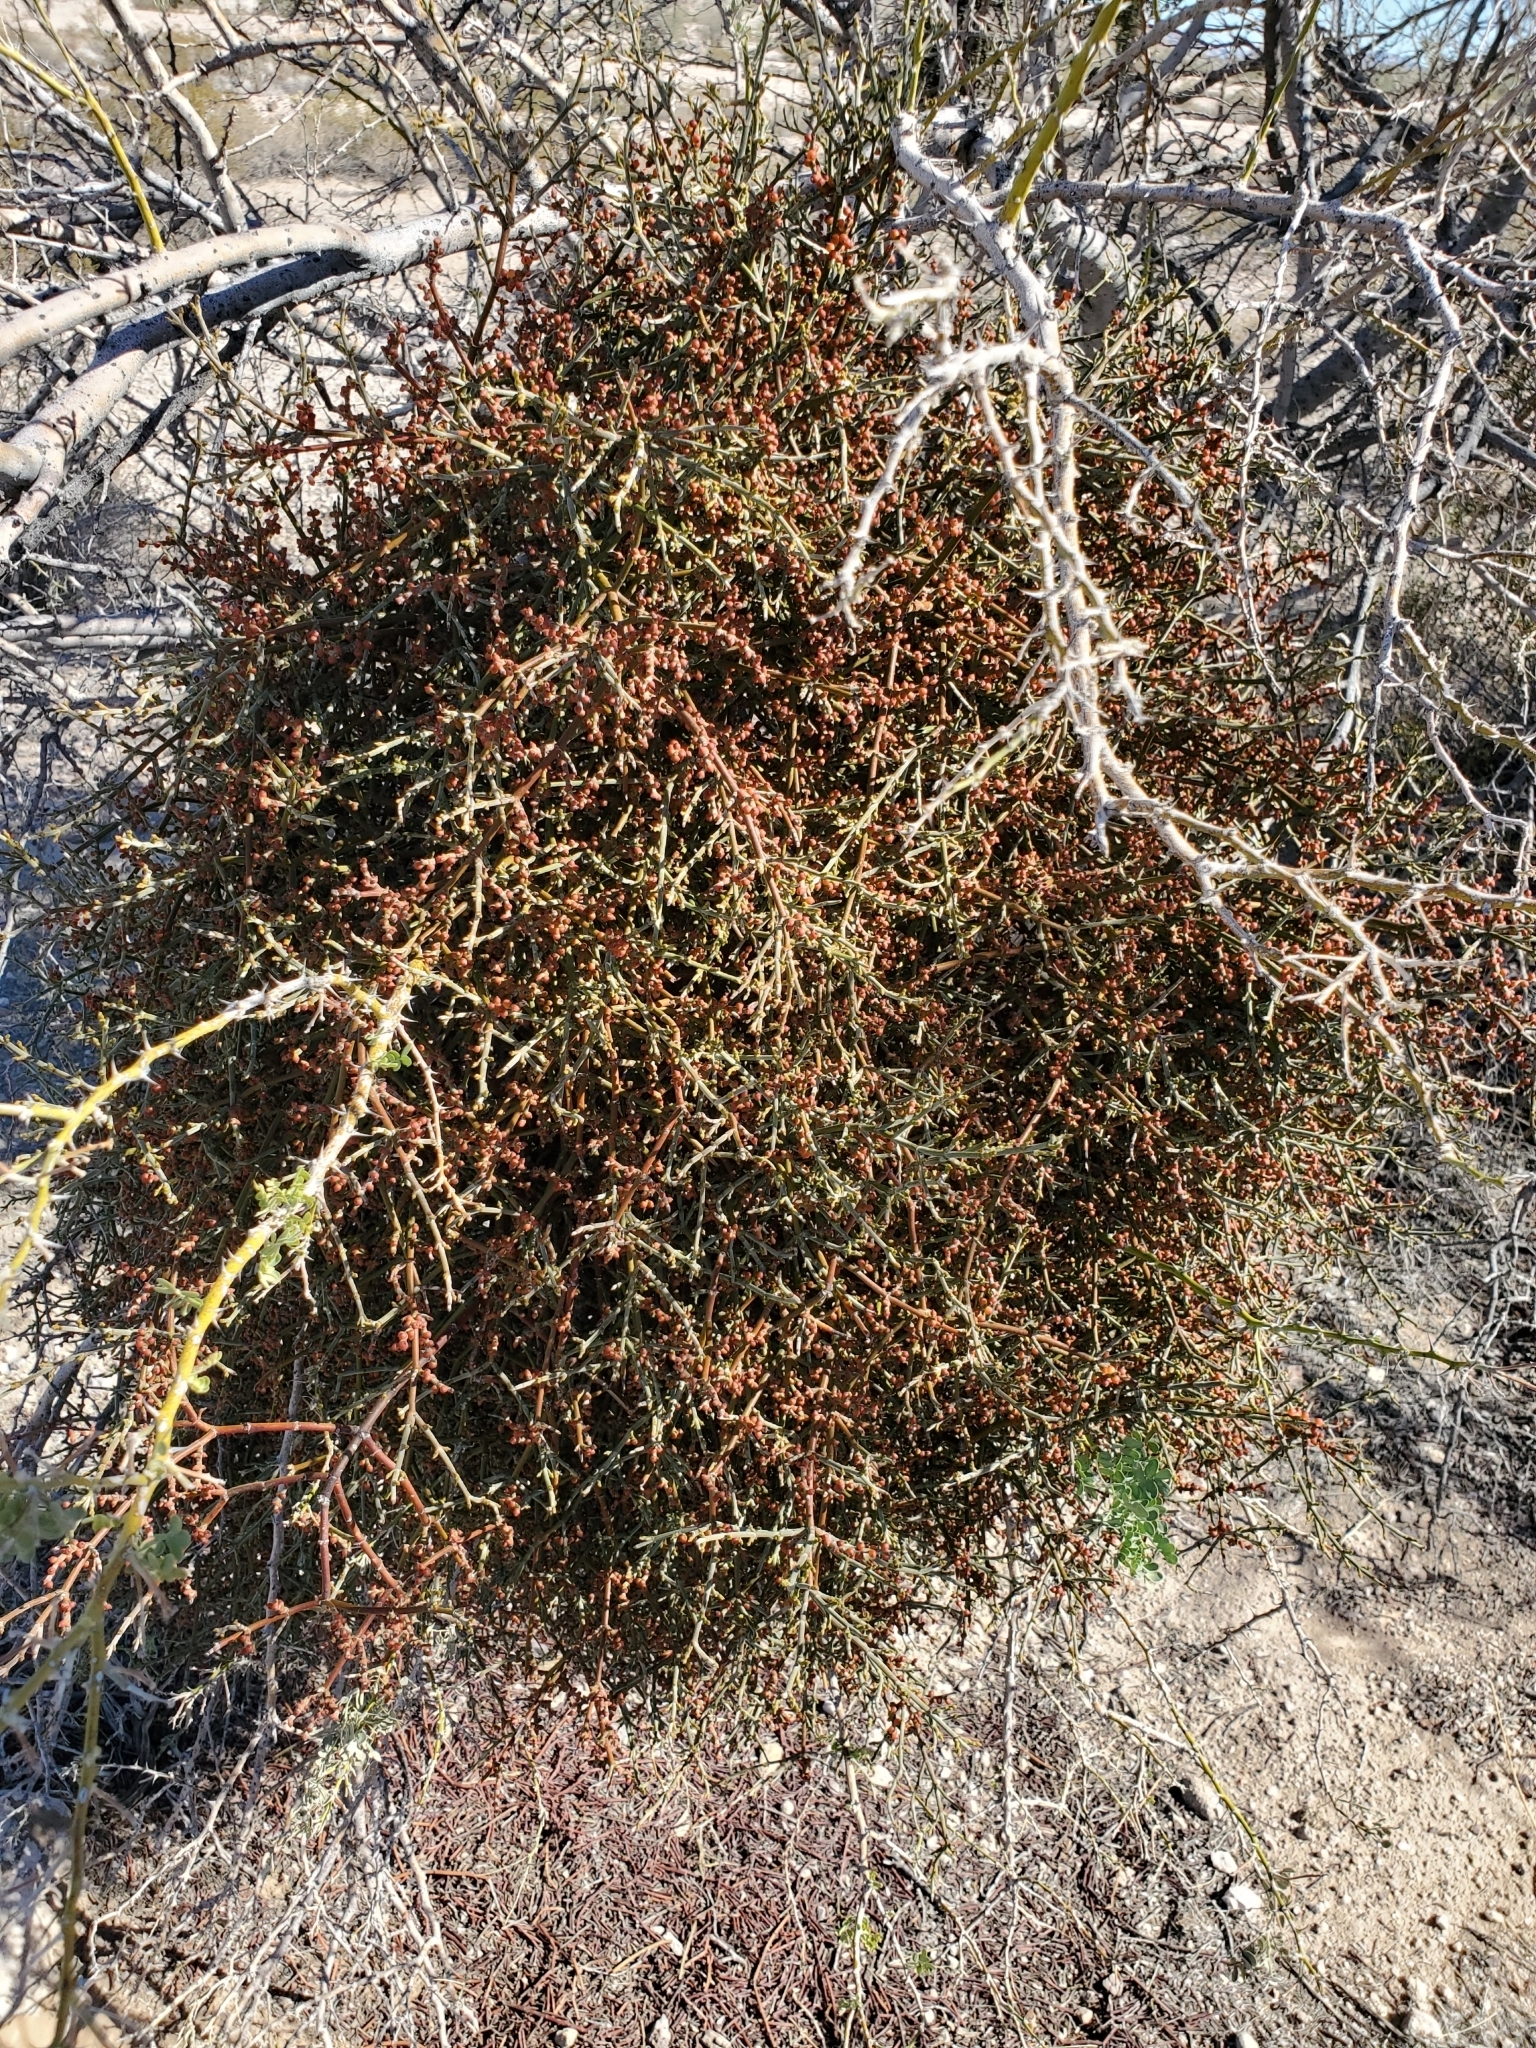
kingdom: Plantae
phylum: Tracheophyta
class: Magnoliopsida
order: Fabales
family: Fabaceae
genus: Olneya
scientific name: Olneya tesota
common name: Desert ironwood
